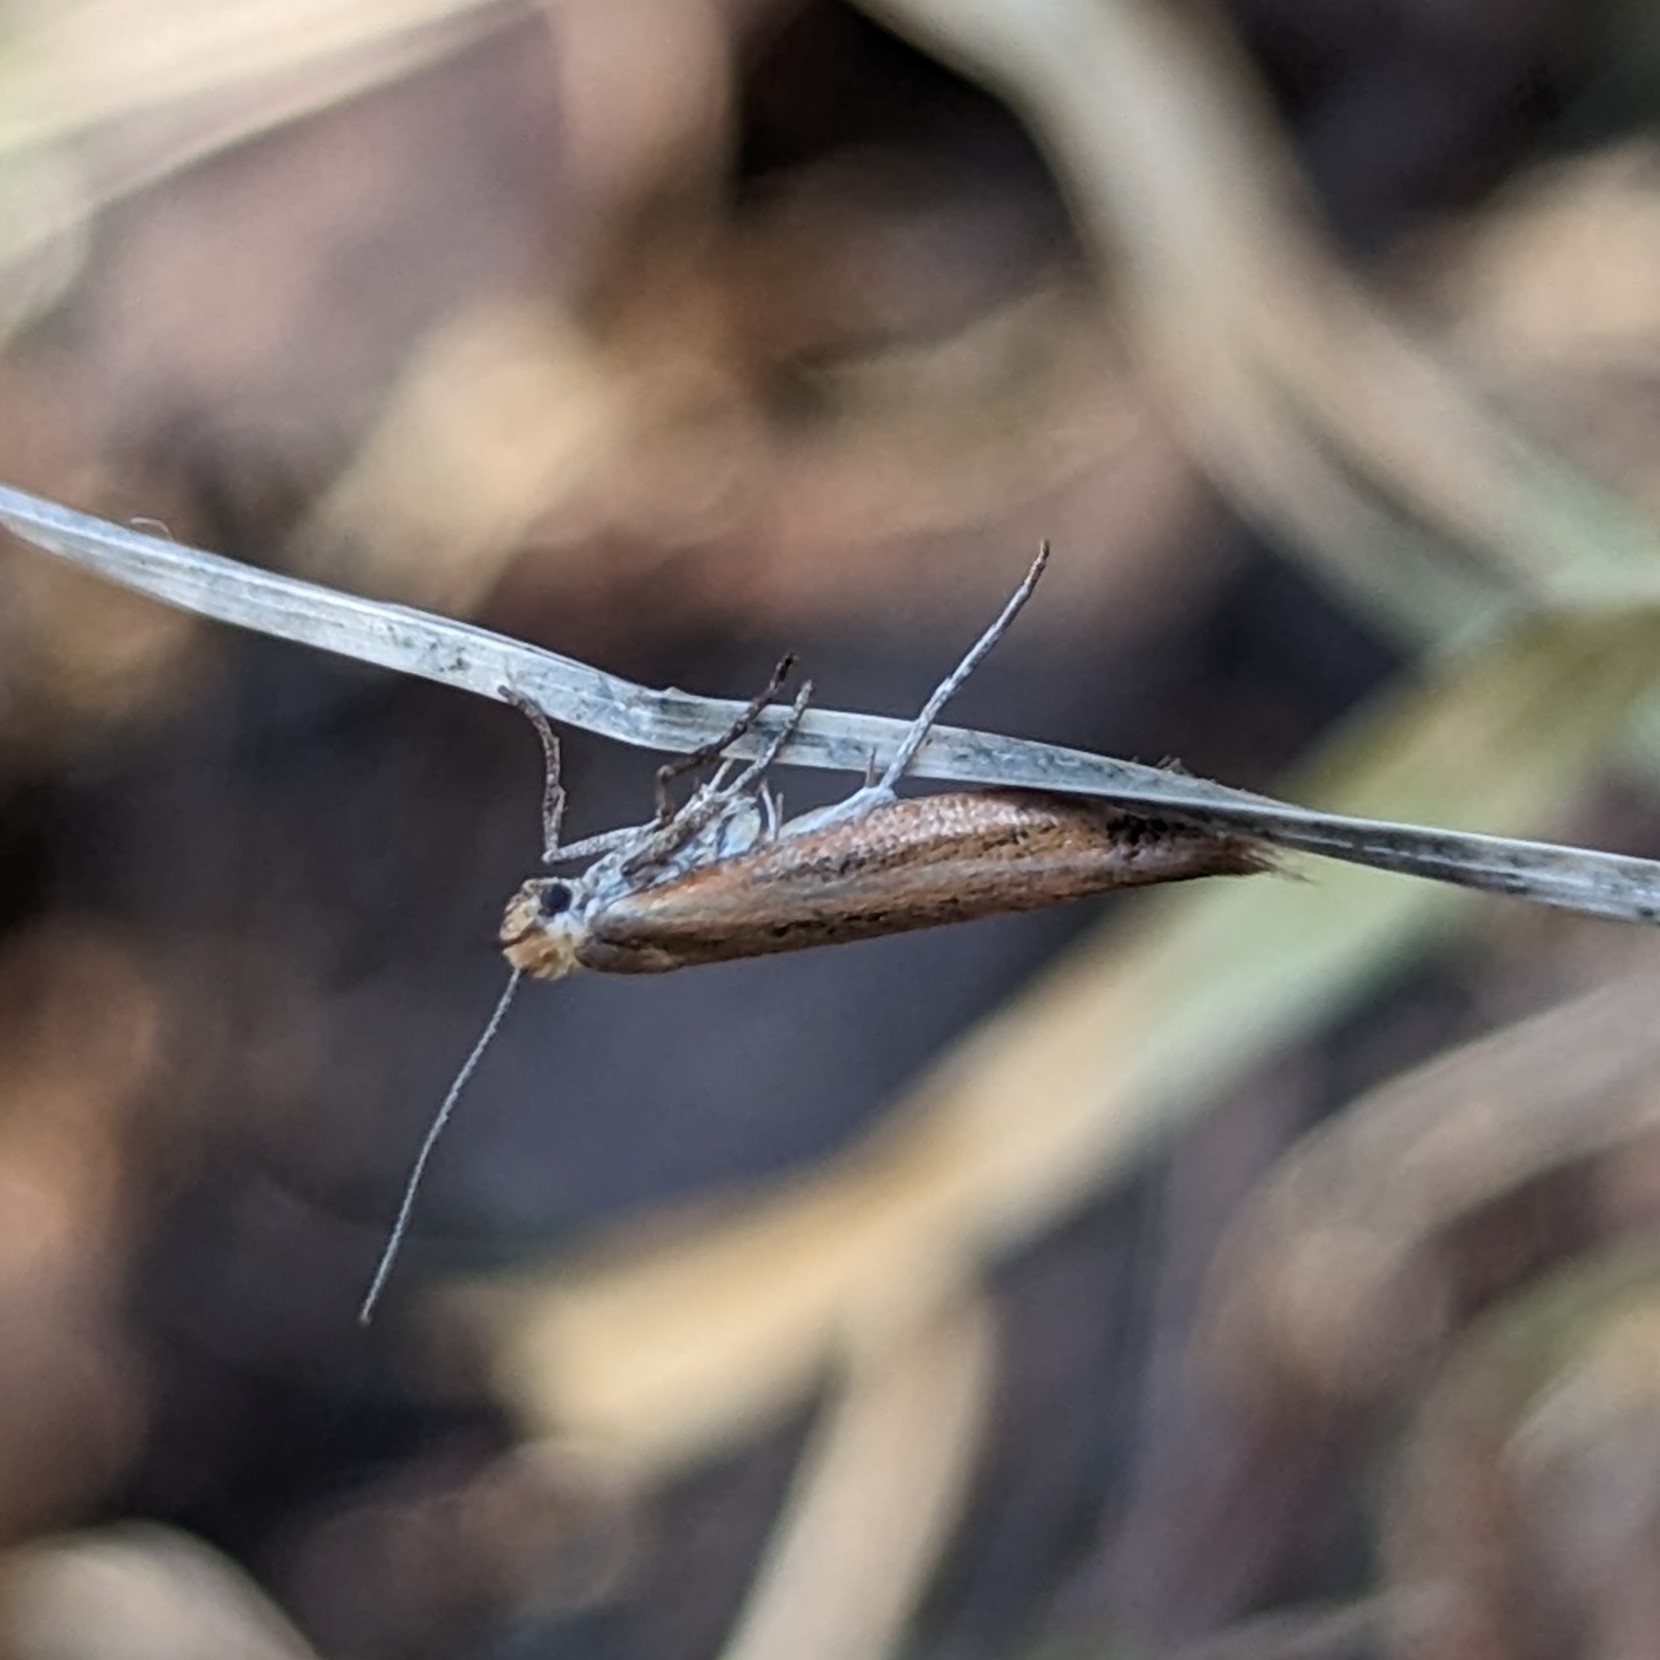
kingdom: Animalia
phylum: Arthropoda
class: Insecta
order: Lepidoptera
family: Yponomeutidae
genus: Euhyponomeutoides
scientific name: Euhyponomeutoides gracilariella
